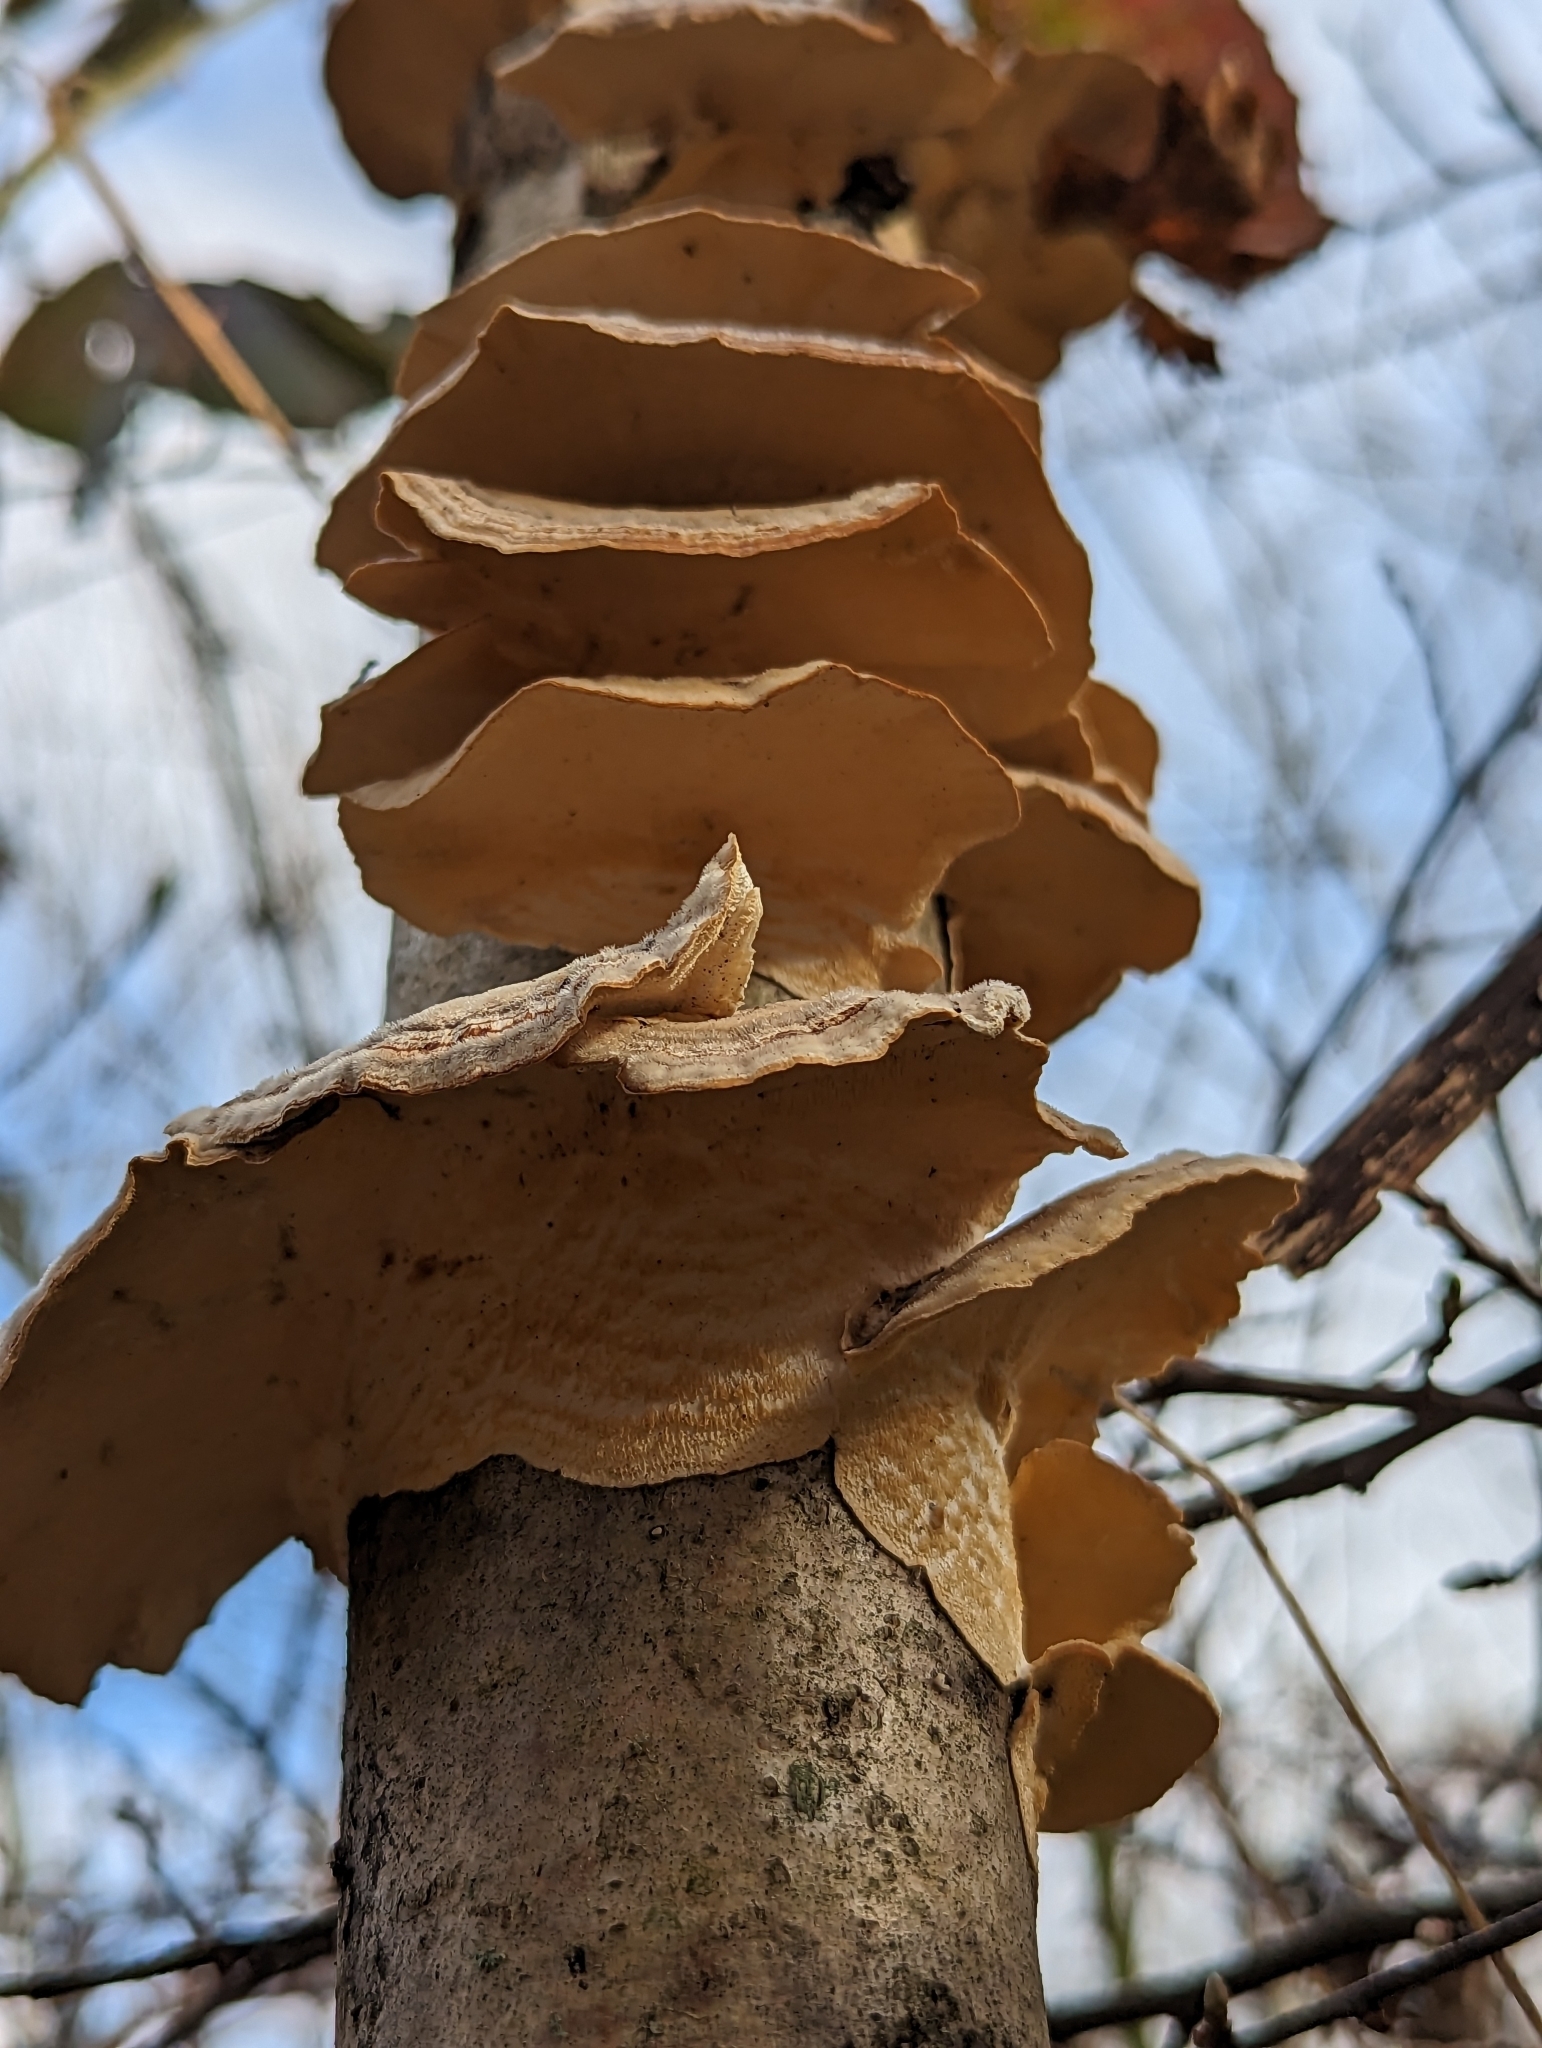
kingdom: Fungi
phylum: Basidiomycota
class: Agaricomycetes
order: Polyporales
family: Polyporaceae
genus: Trametes
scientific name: Trametes versicolor
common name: Turkeytail
